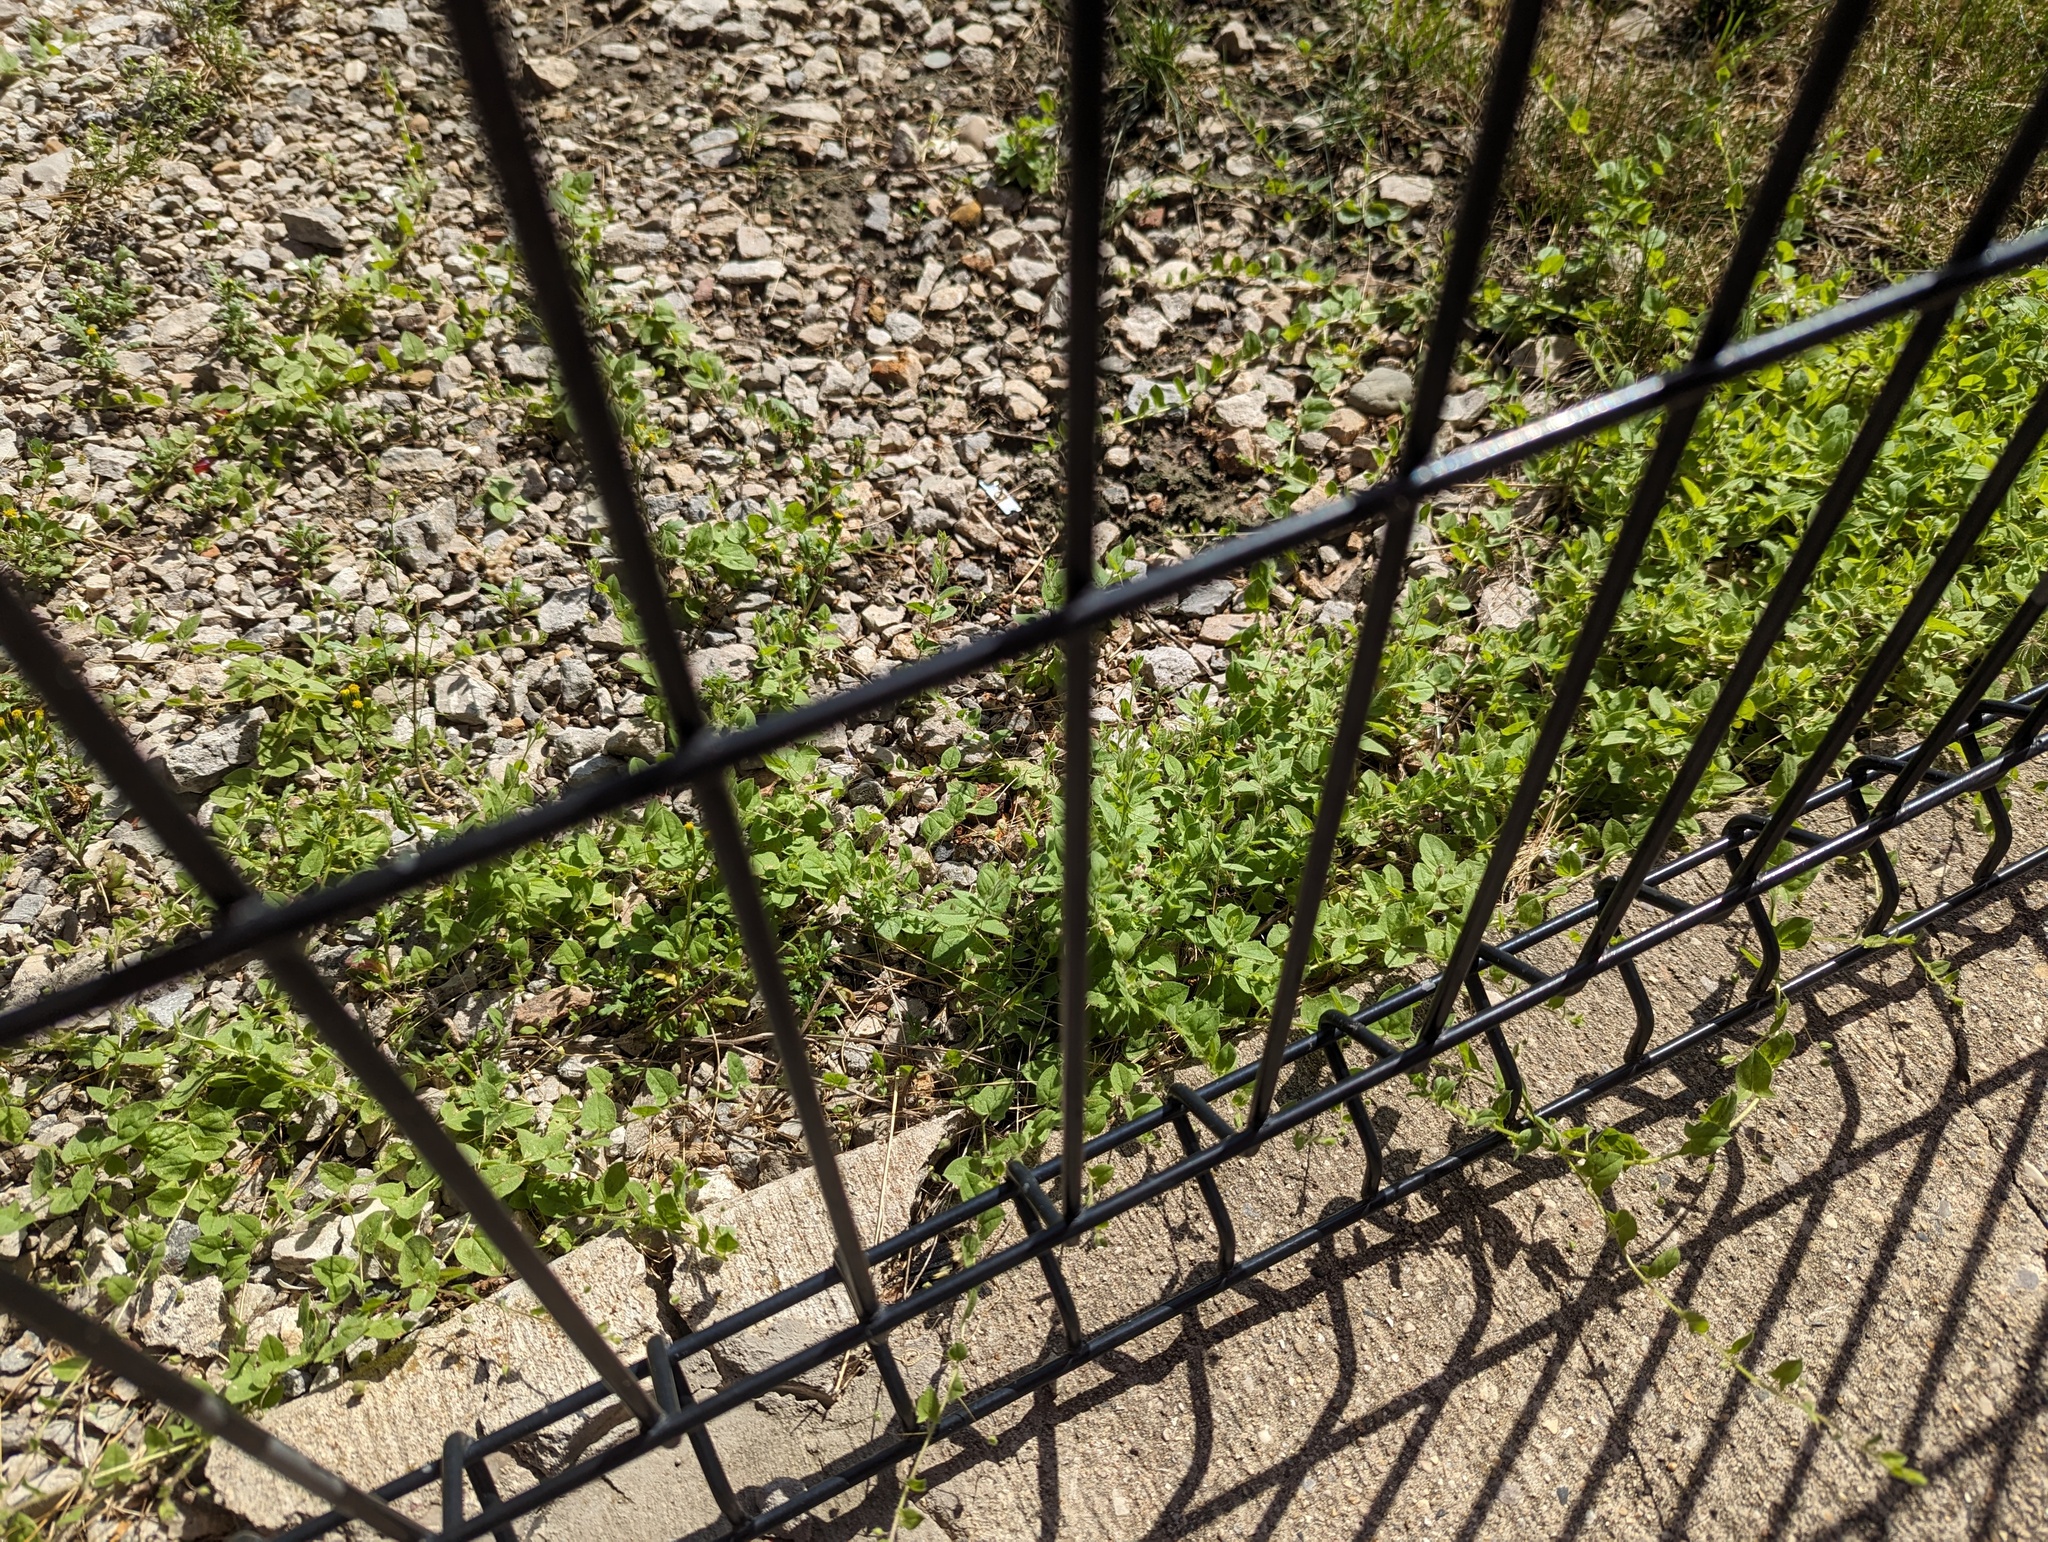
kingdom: Plantae
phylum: Tracheophyta
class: Magnoliopsida
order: Lamiales
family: Plantaginaceae
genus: Kickxia
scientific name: Kickxia elatine
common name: Sharp-leaved fluellen
